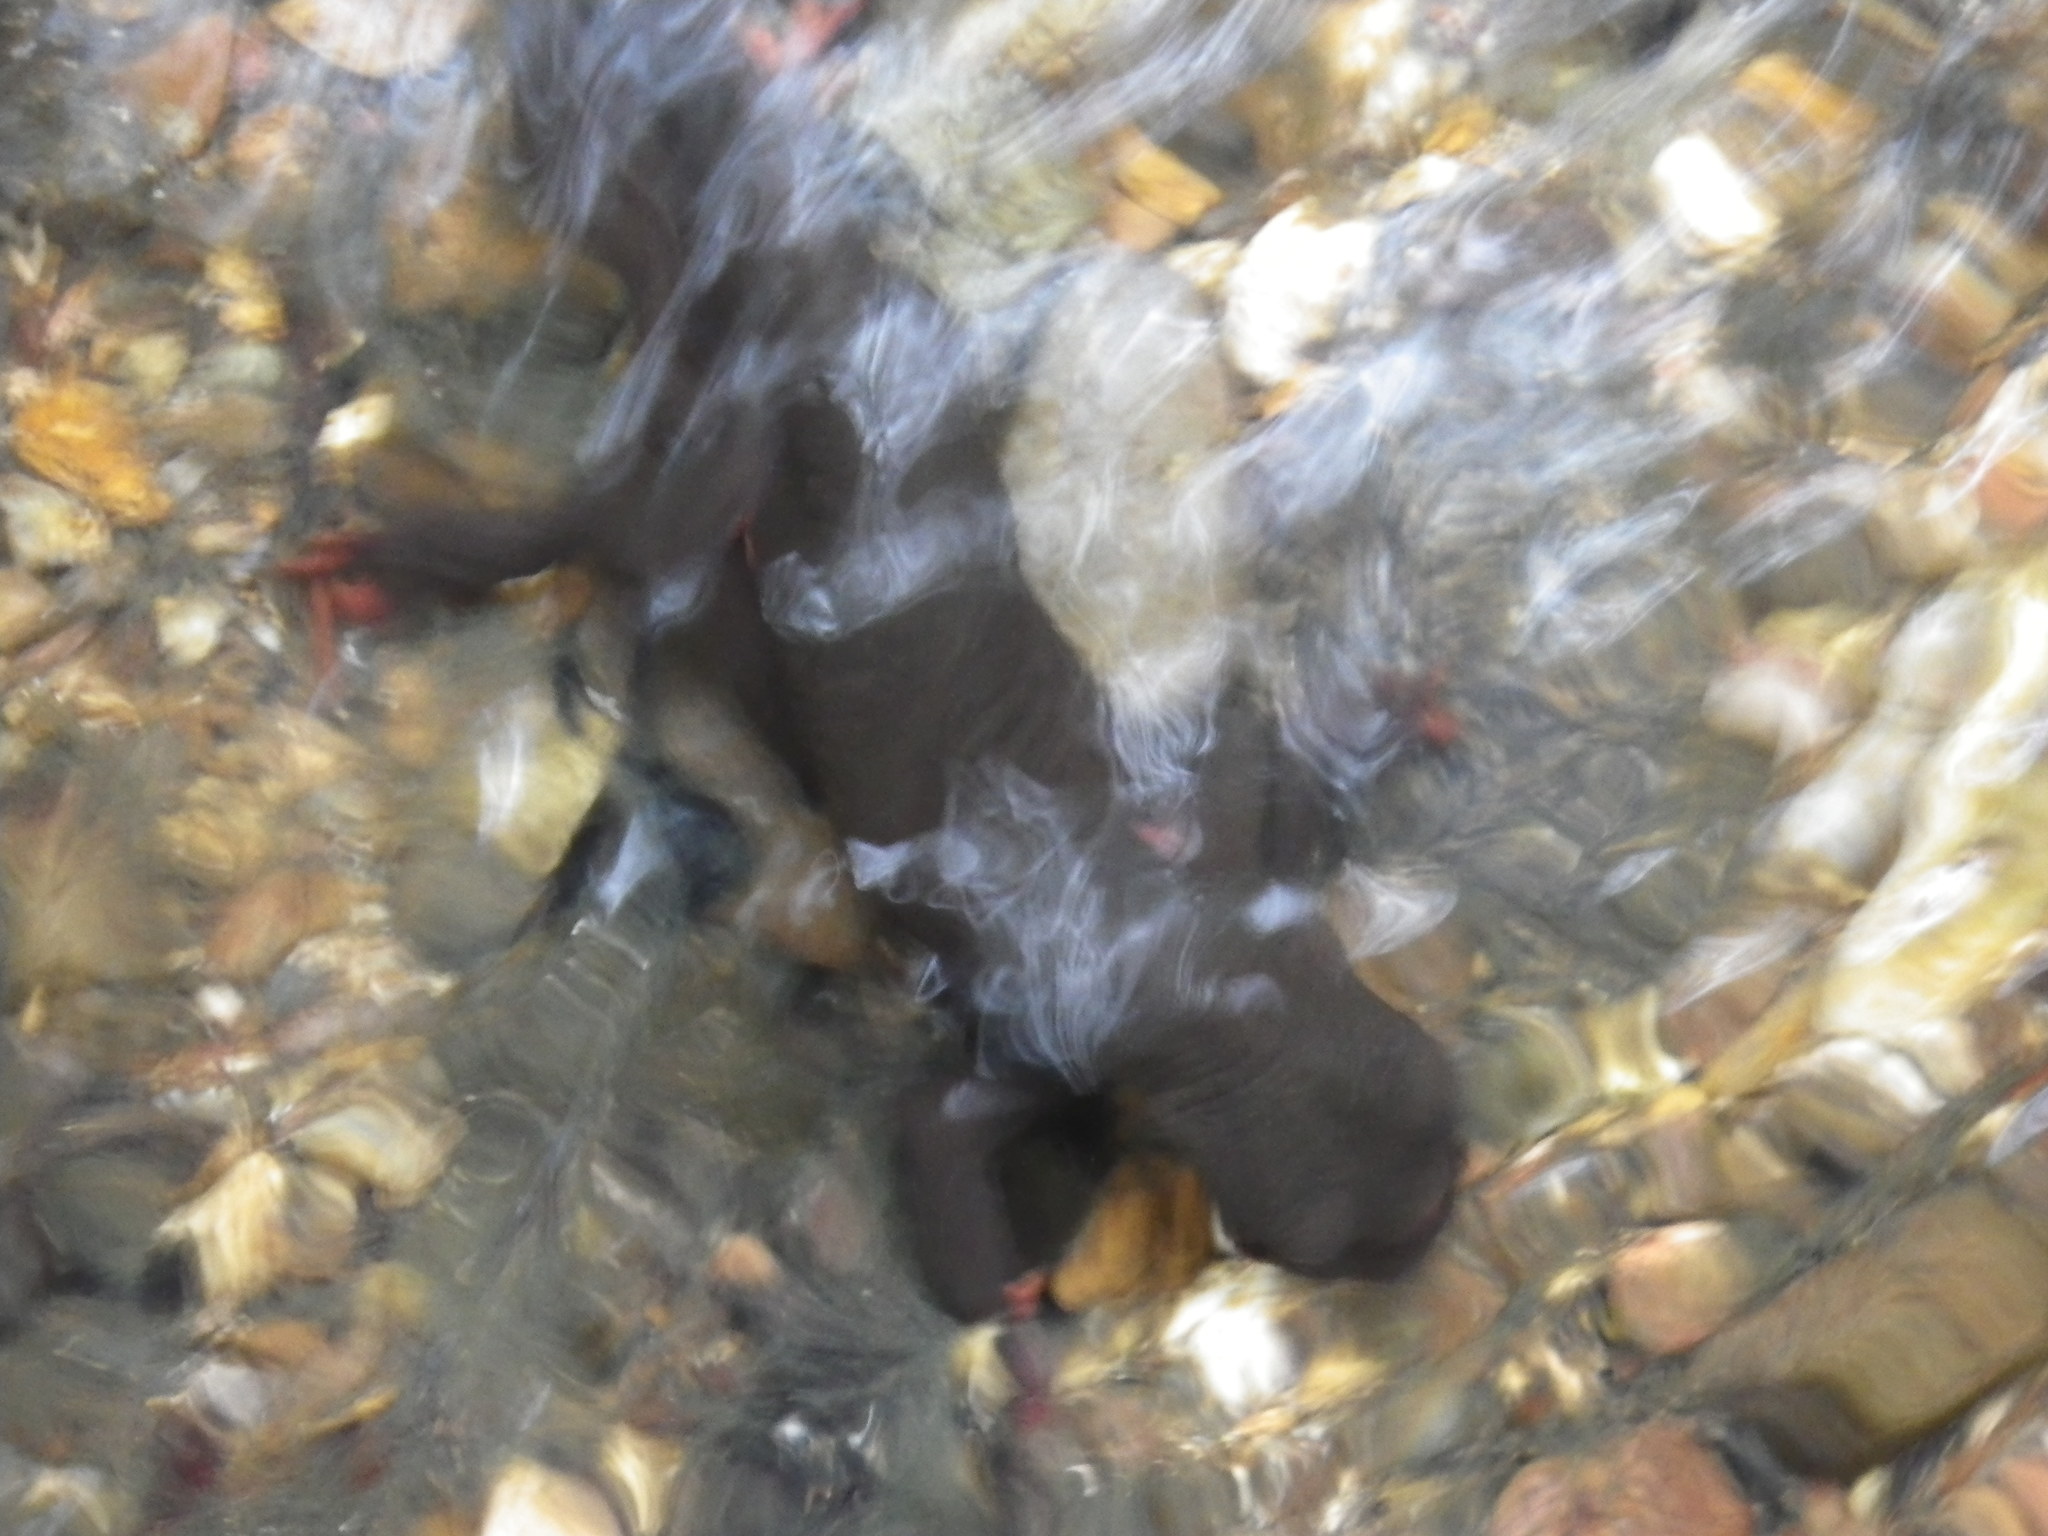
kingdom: Animalia
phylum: Chordata
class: Amphibia
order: Caudata
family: Salamandridae
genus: Taricha
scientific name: Taricha rivularis
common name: Red-bellied newt
